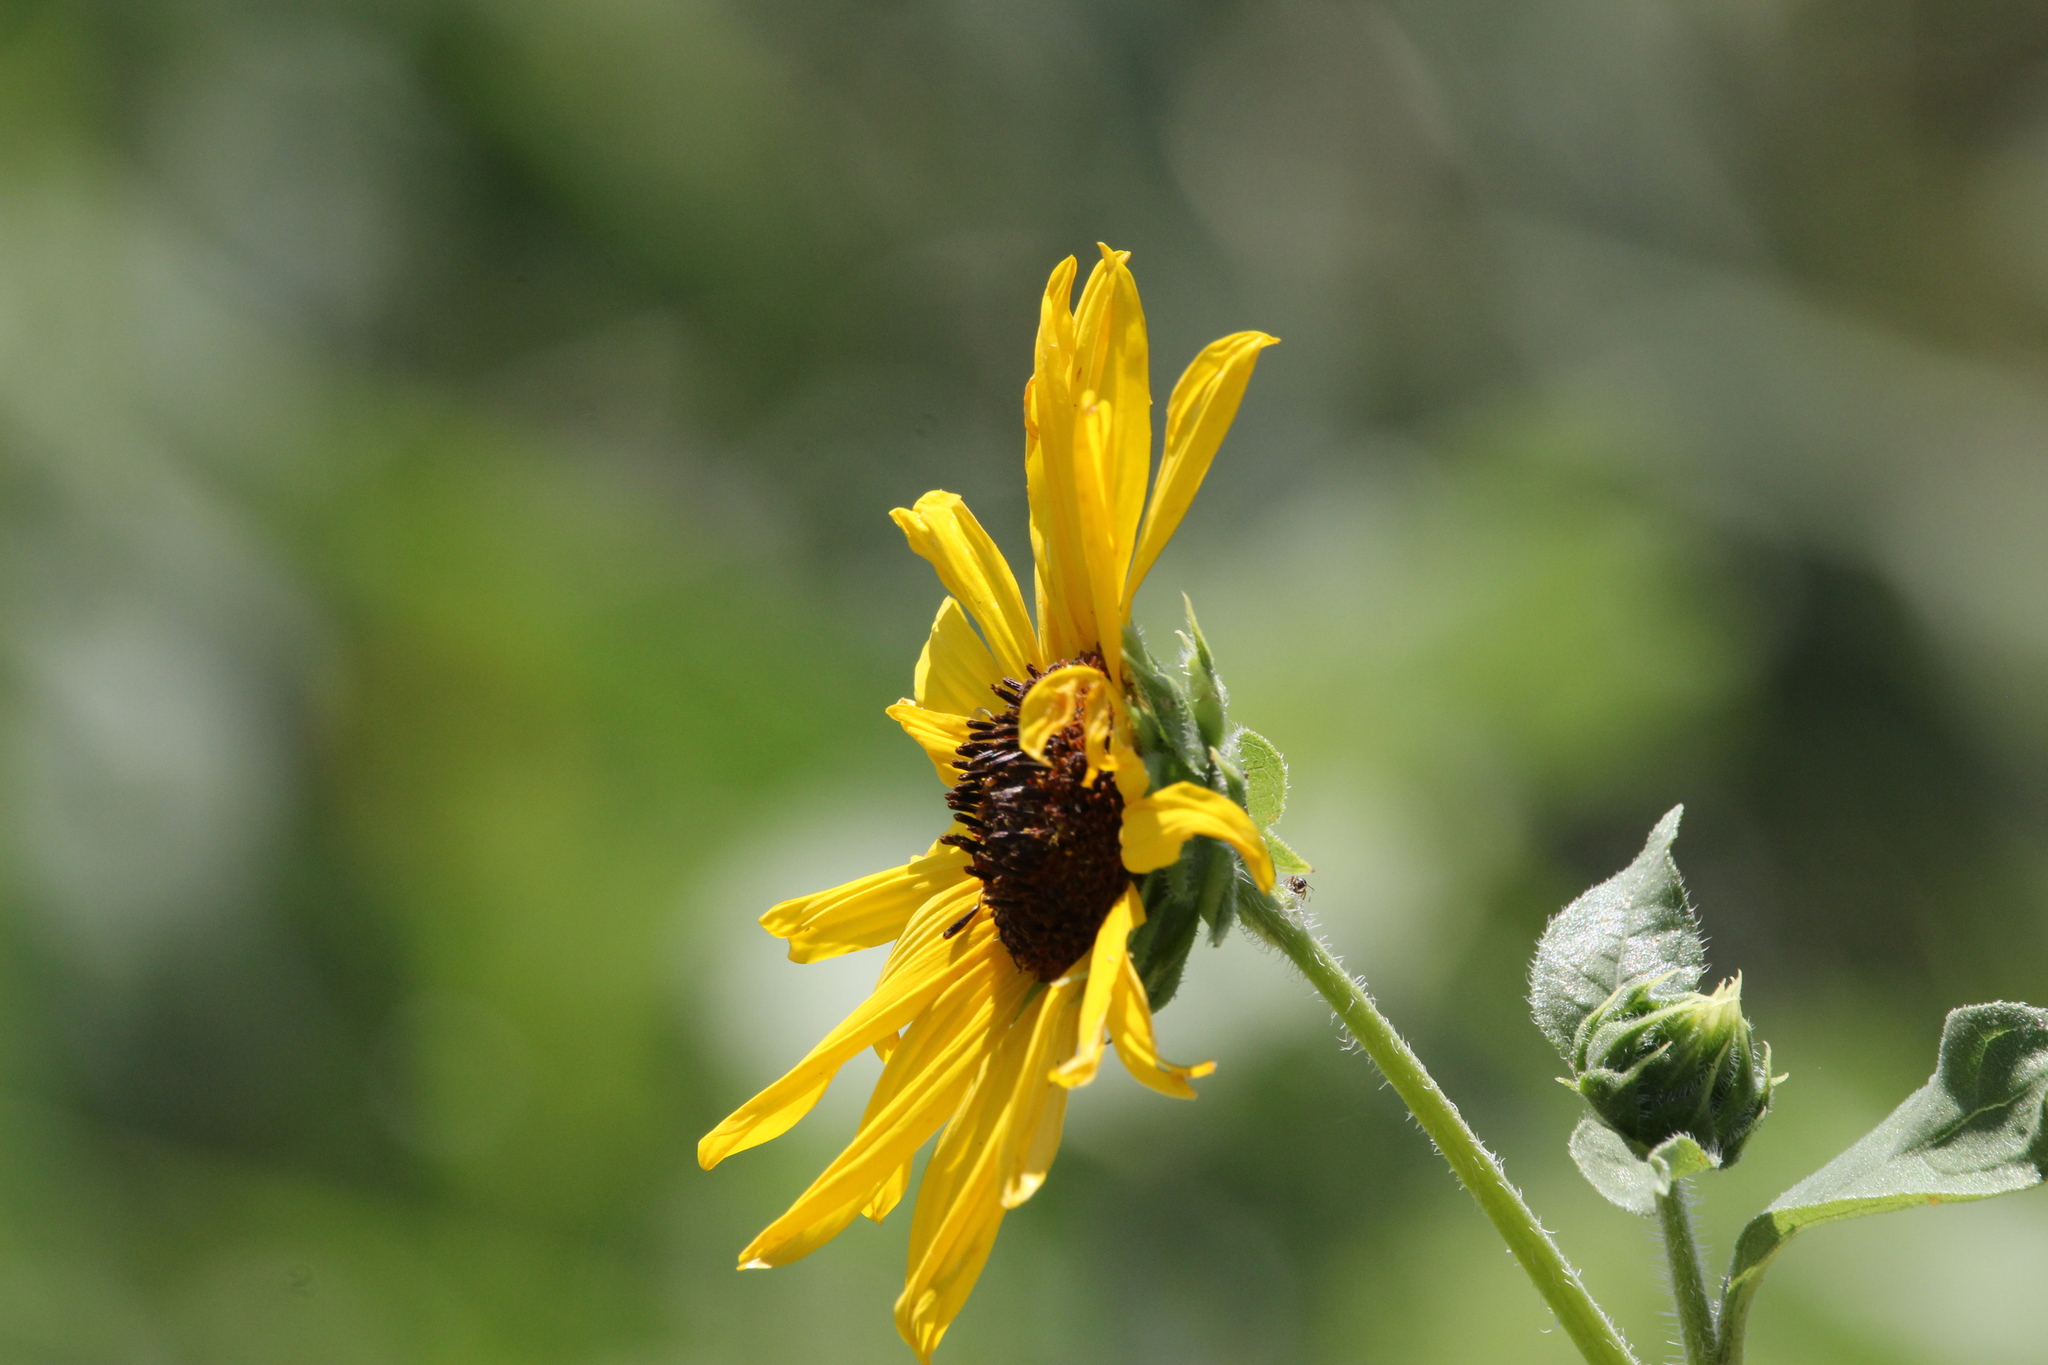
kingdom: Plantae
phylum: Tracheophyta
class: Magnoliopsida
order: Asterales
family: Asteraceae
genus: Helianthus
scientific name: Helianthus annuus
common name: Sunflower
